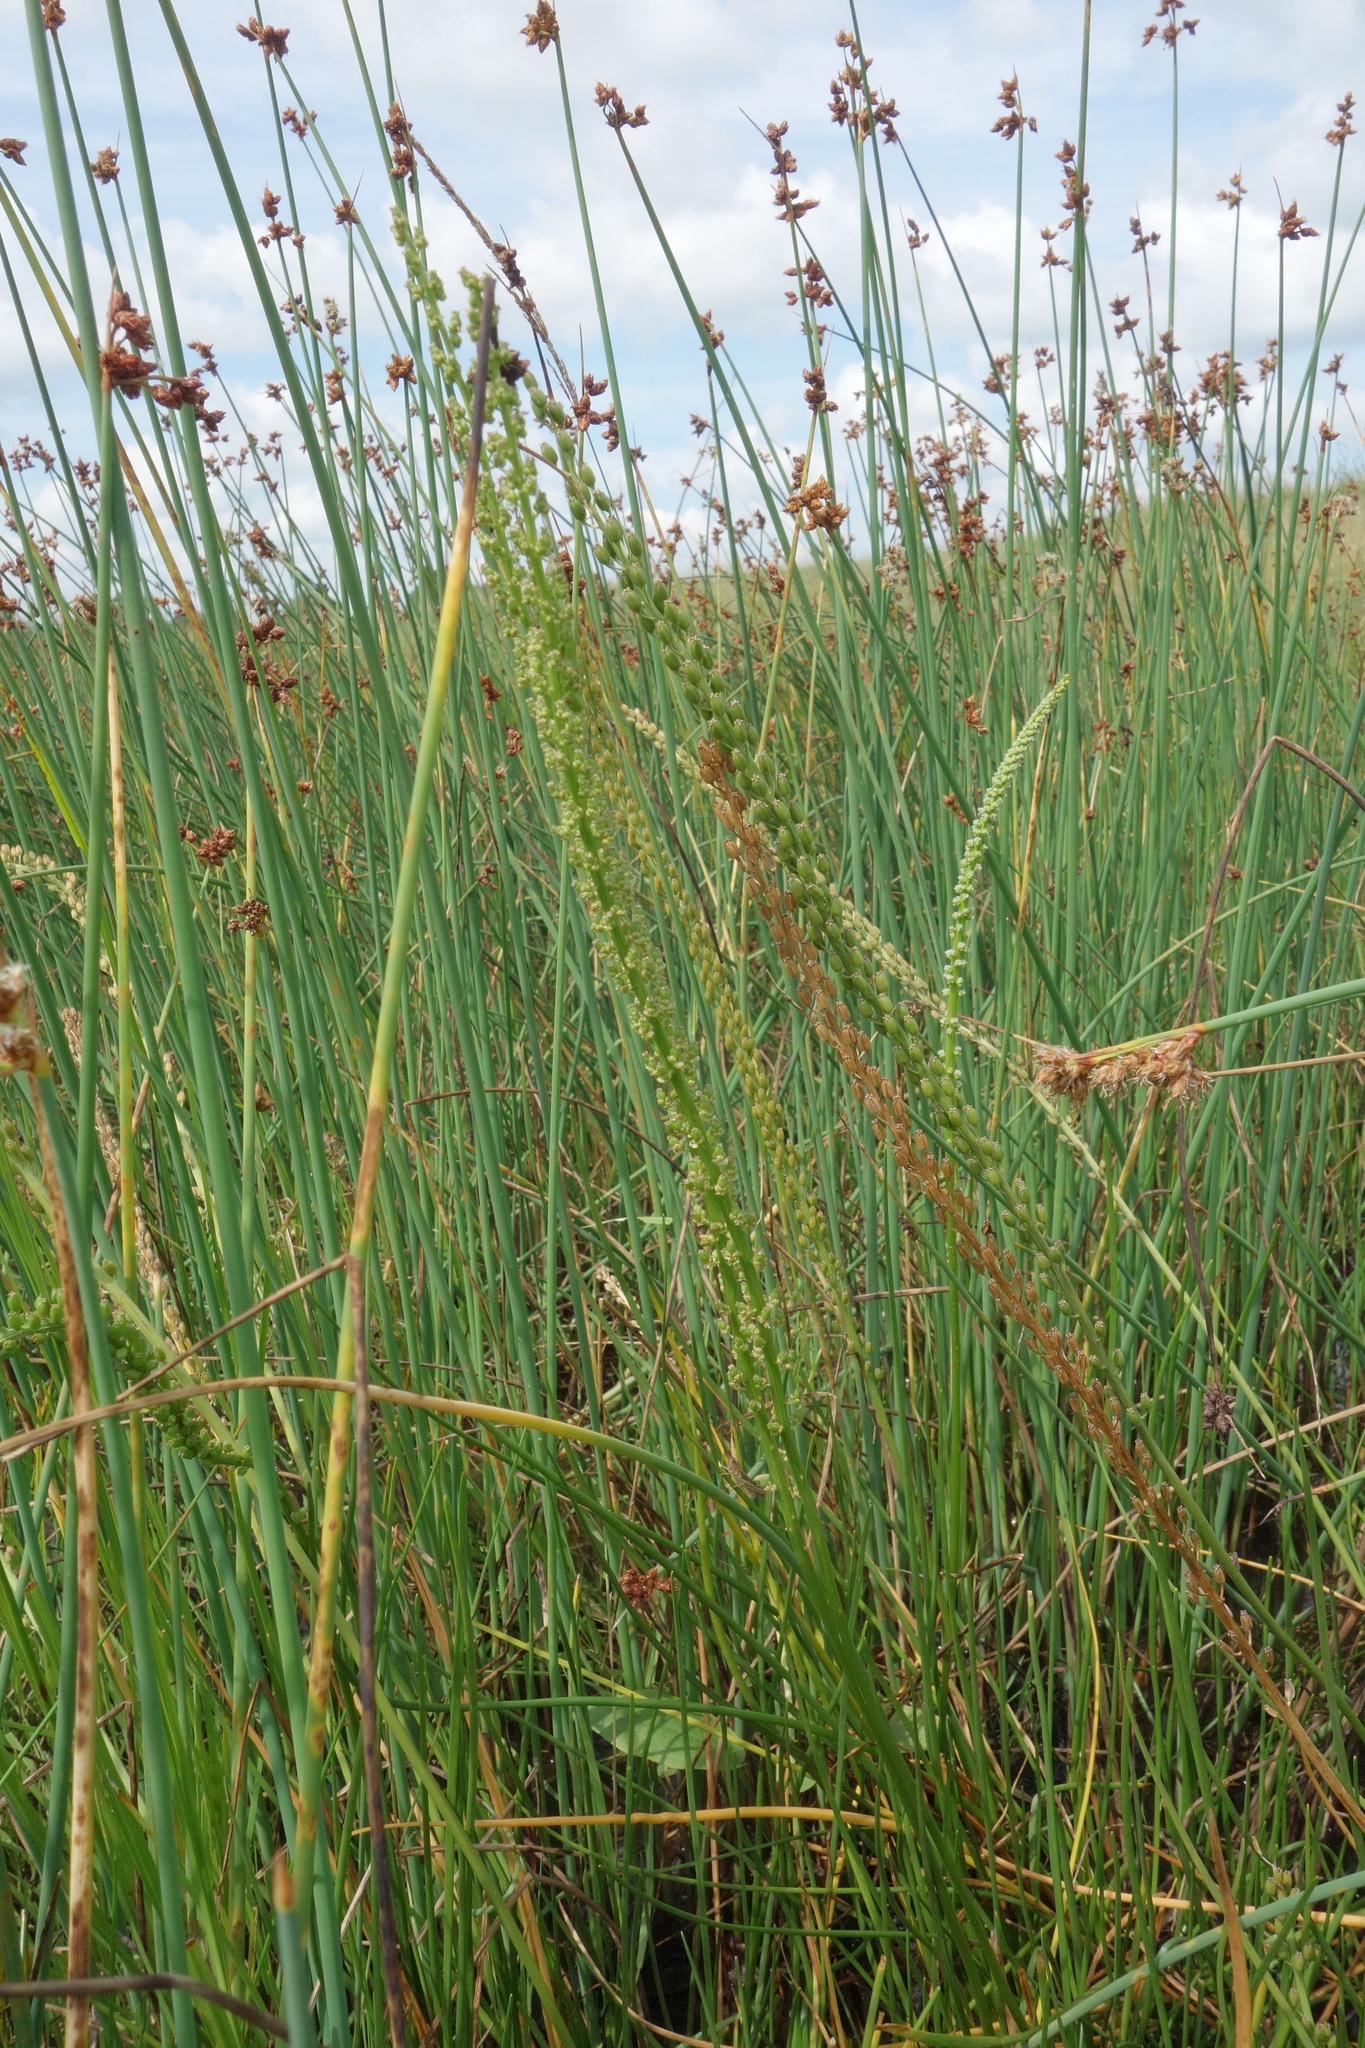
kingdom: Plantae
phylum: Tracheophyta
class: Liliopsida
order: Alismatales
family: Juncaginaceae
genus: Triglochin
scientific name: Triglochin maritima
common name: Sea arrowgrass
